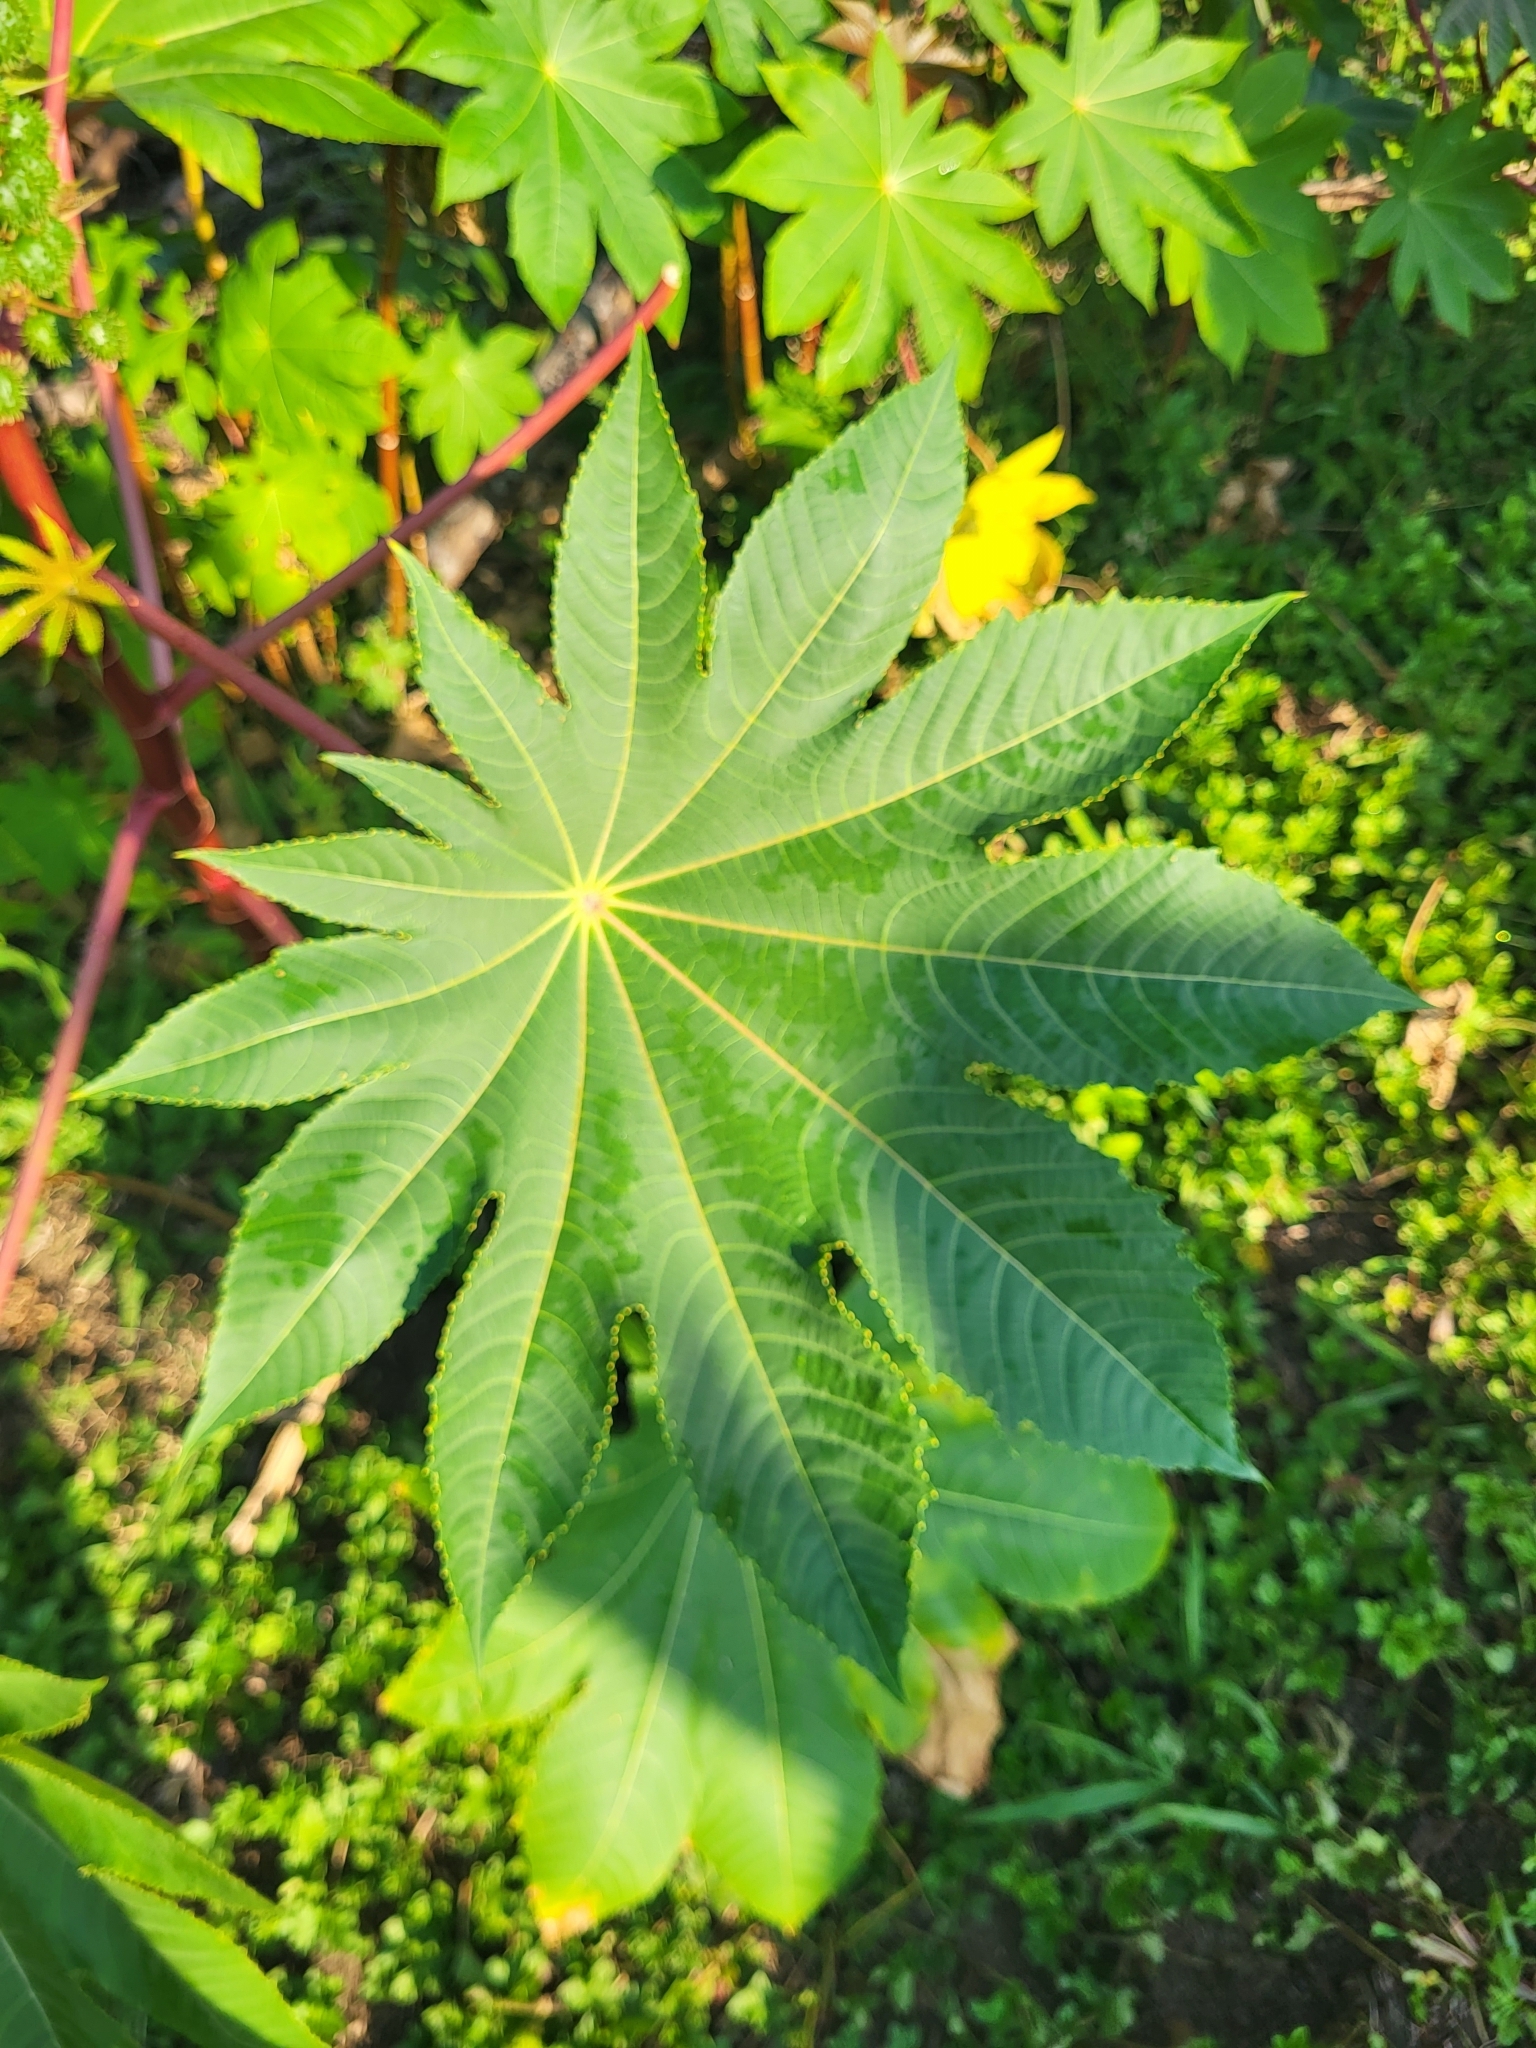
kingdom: Plantae
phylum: Tracheophyta
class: Magnoliopsida
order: Malpighiales
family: Euphorbiaceae
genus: Ricinus
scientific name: Ricinus communis
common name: Castor-oil-plant
